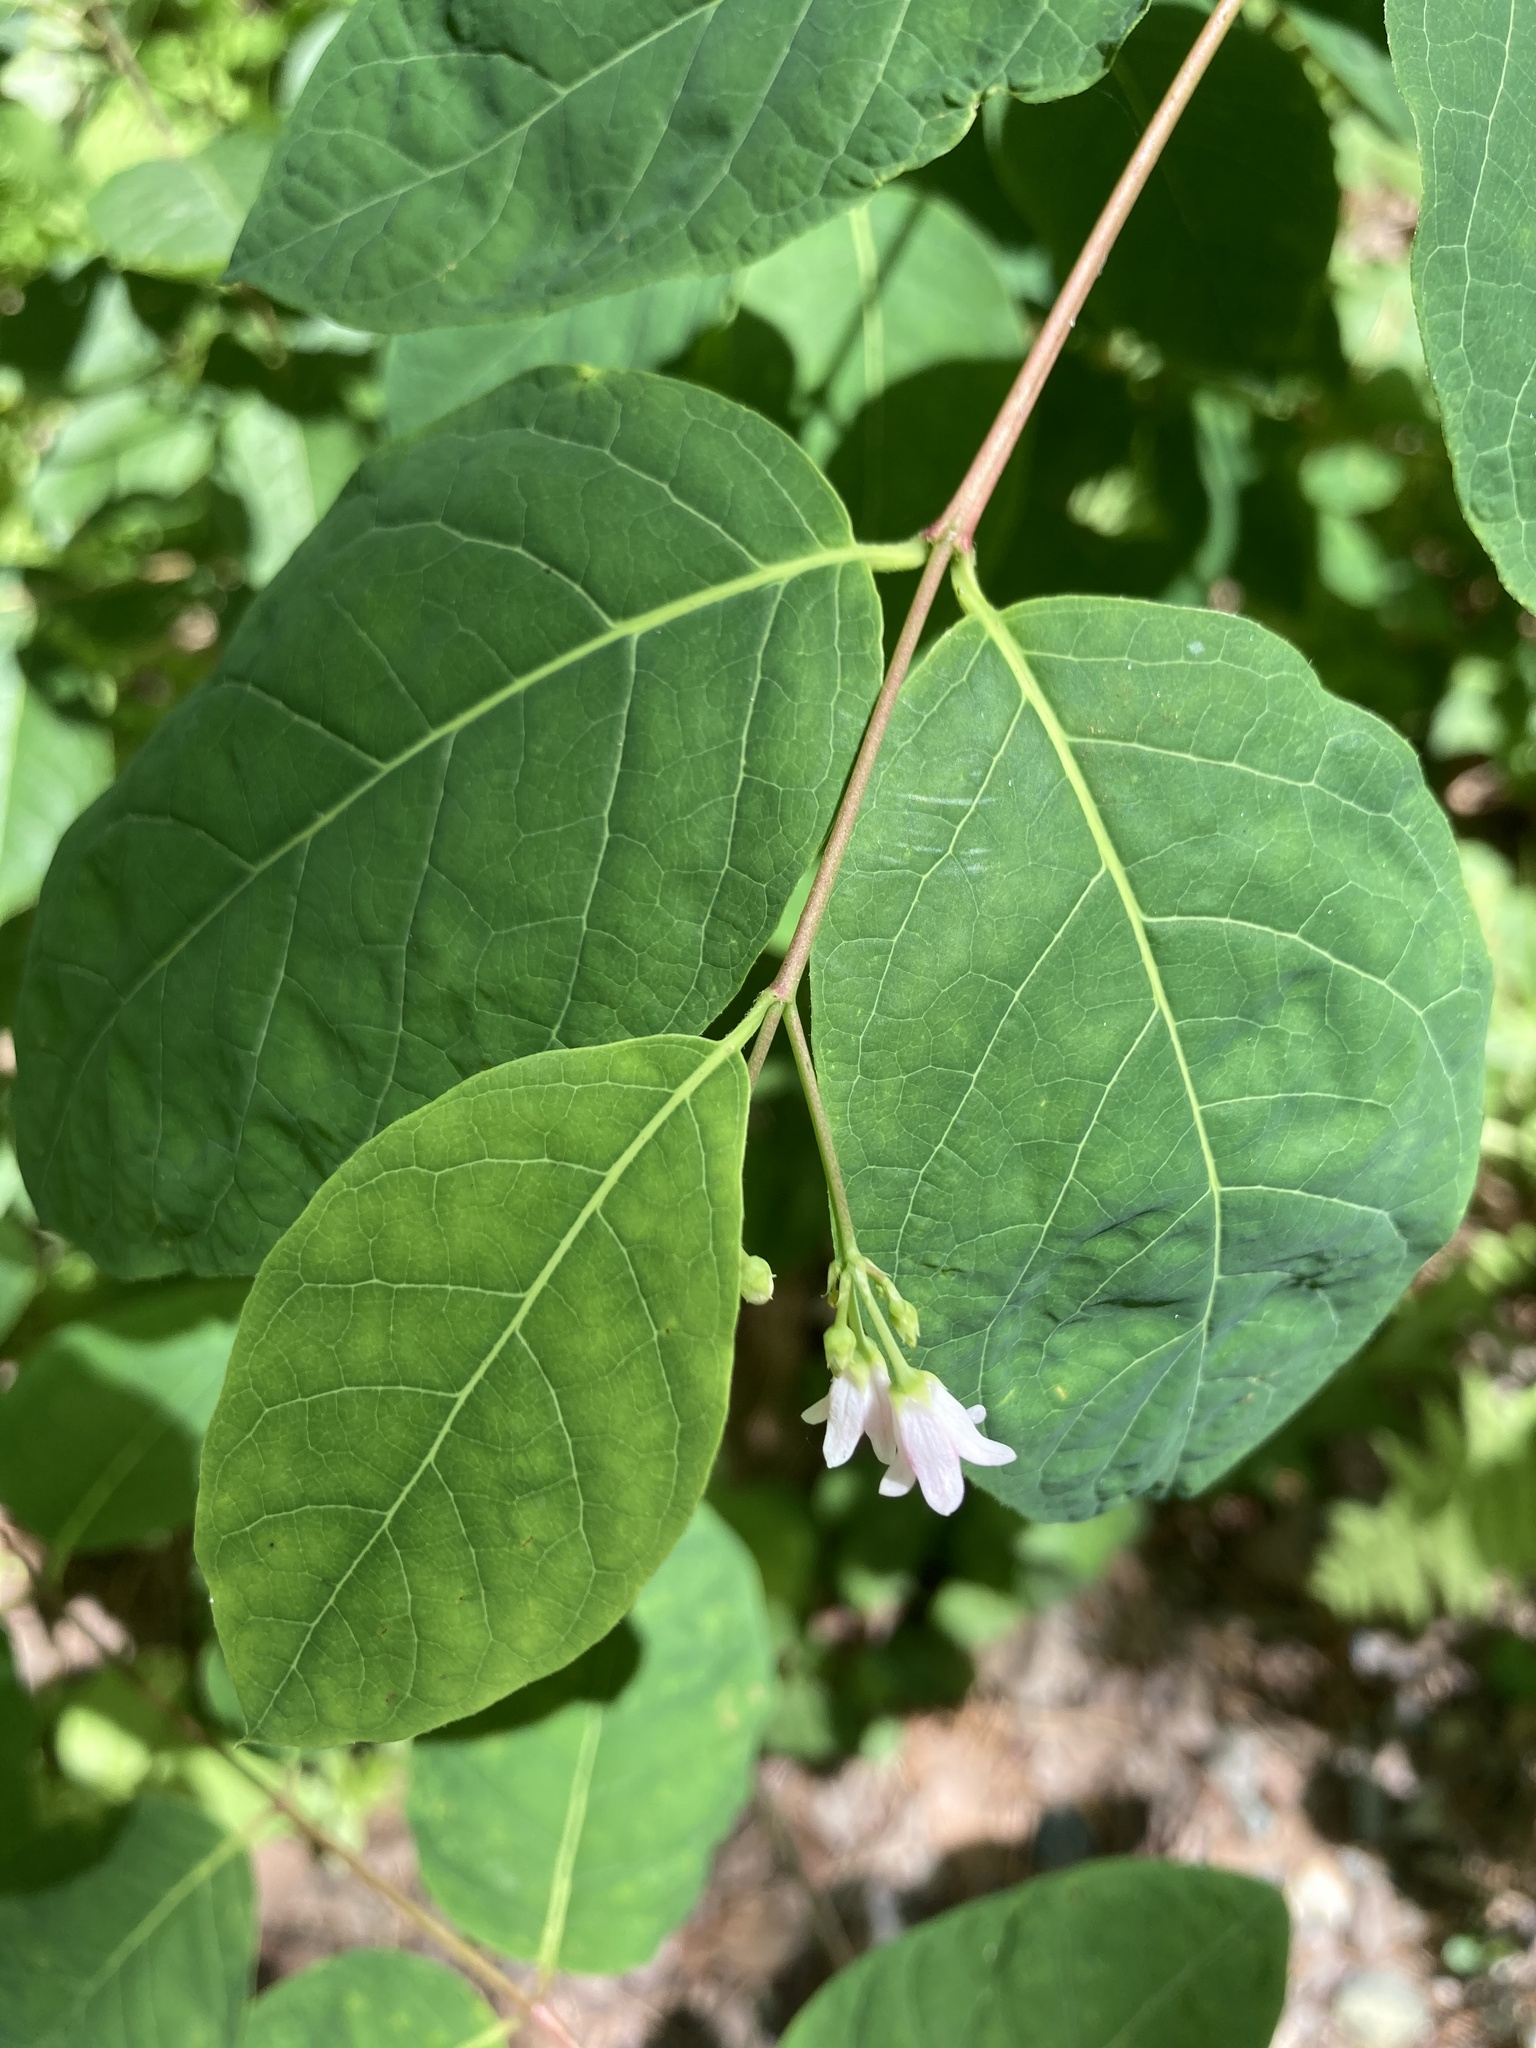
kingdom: Plantae
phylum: Tracheophyta
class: Magnoliopsida
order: Gentianales
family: Apocynaceae
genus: Apocynum
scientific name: Apocynum androsaemifolium
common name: Spreading dogbane
